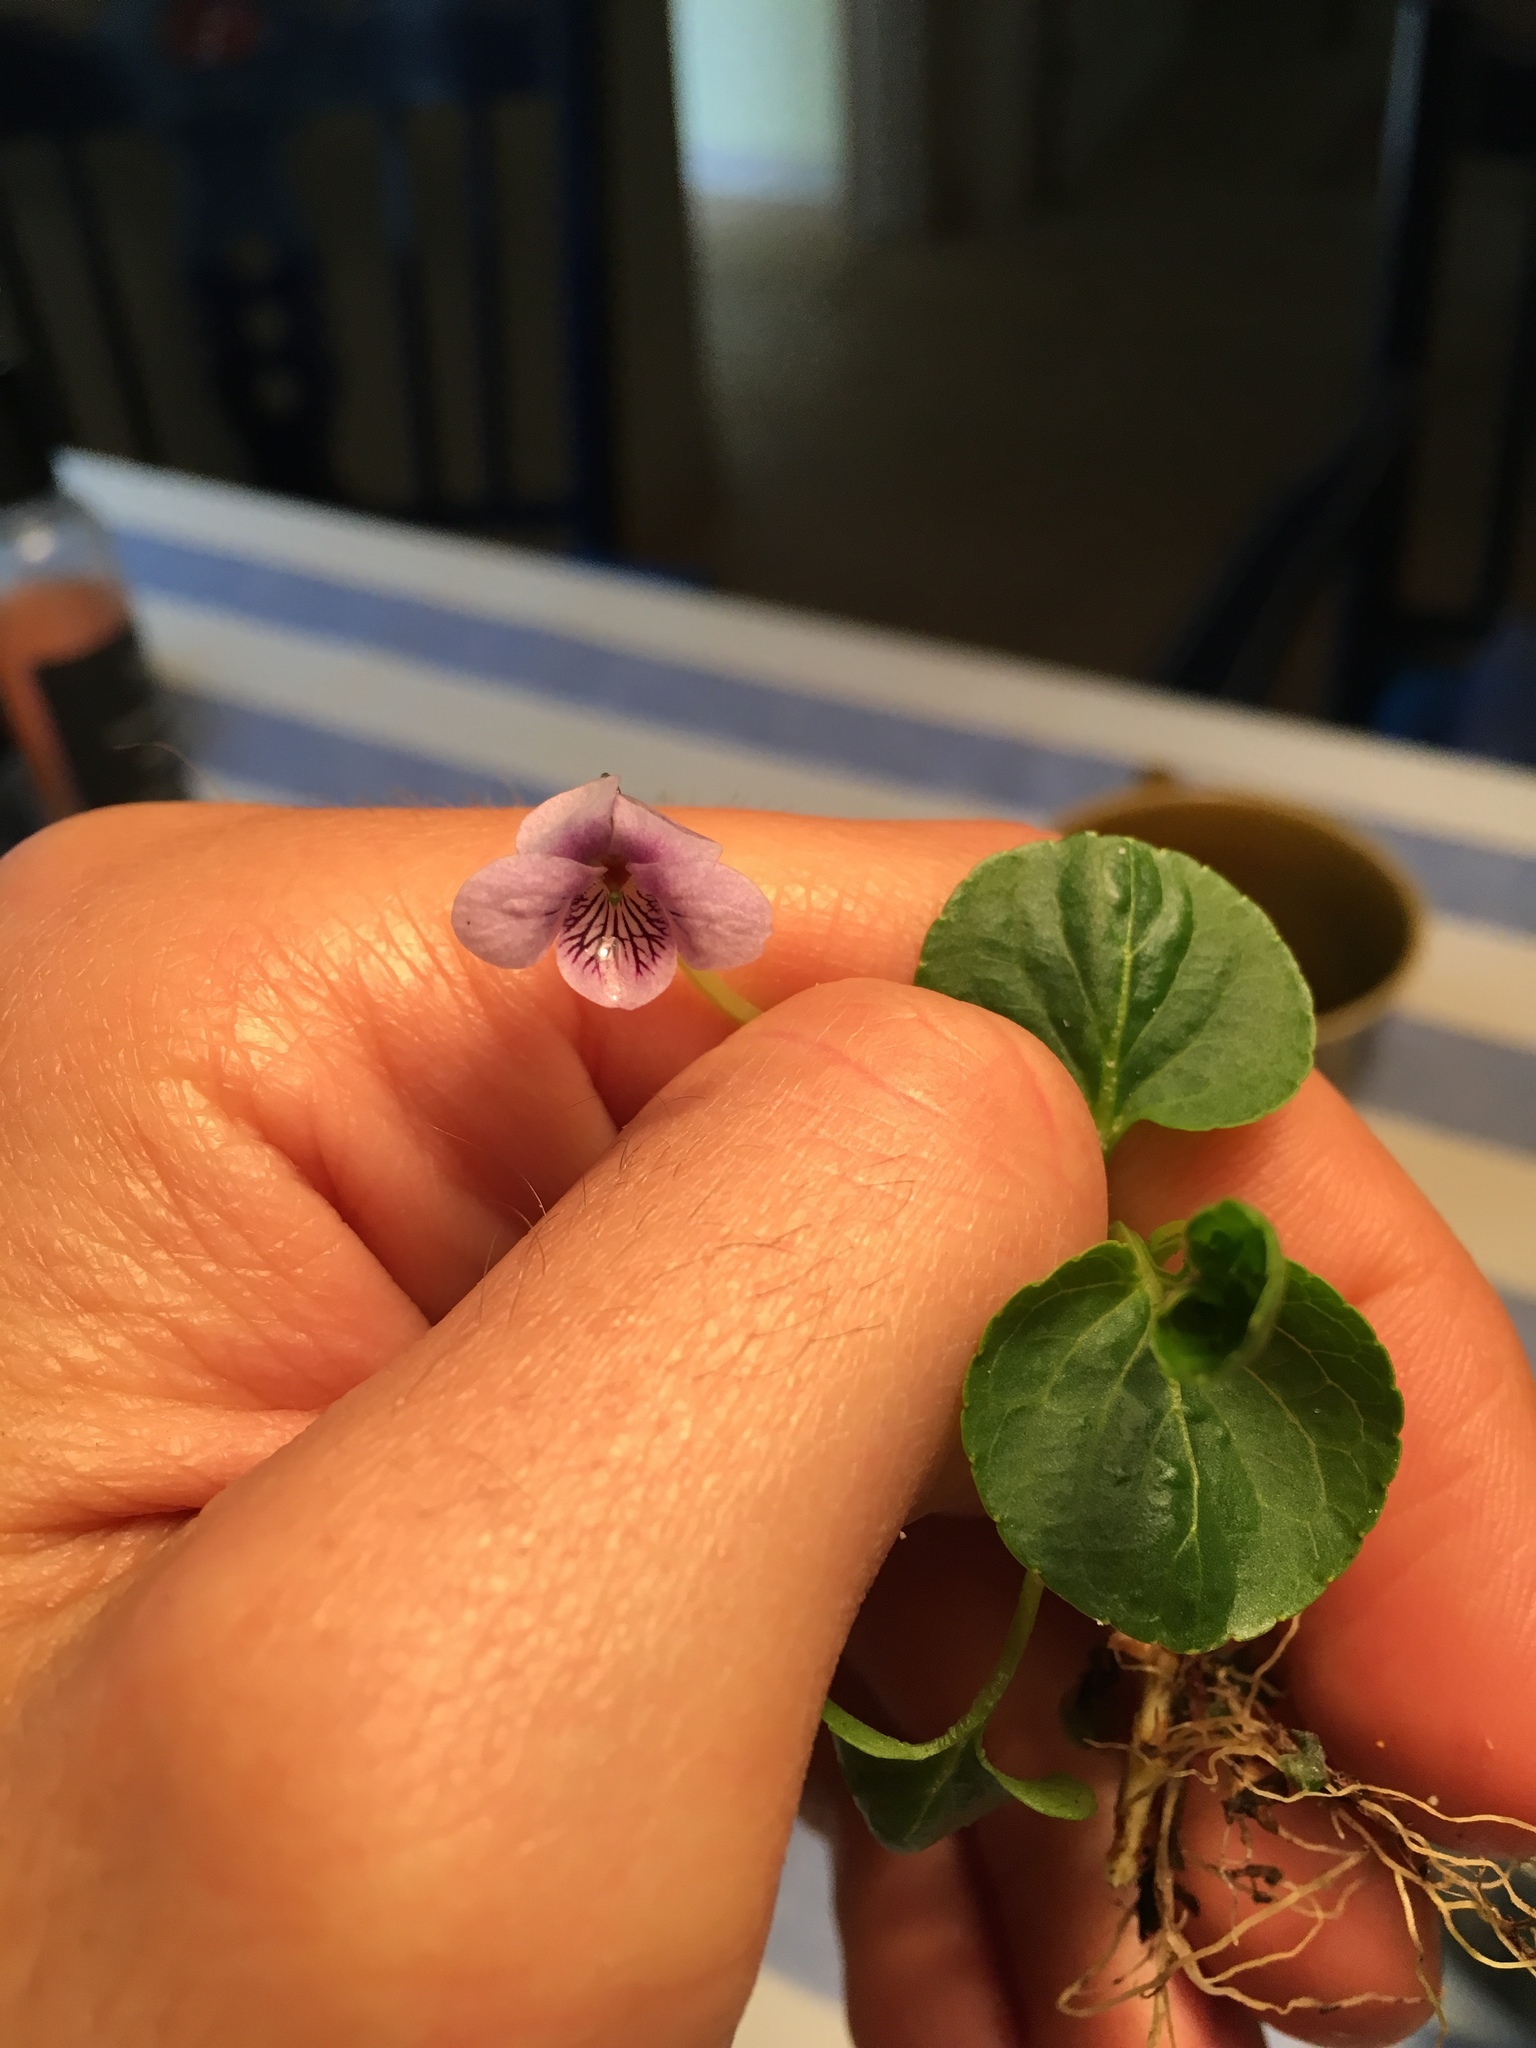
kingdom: Plantae
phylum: Tracheophyta
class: Magnoliopsida
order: Malpighiales
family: Violaceae
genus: Viola
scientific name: Viola palustris
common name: Marsh violet
